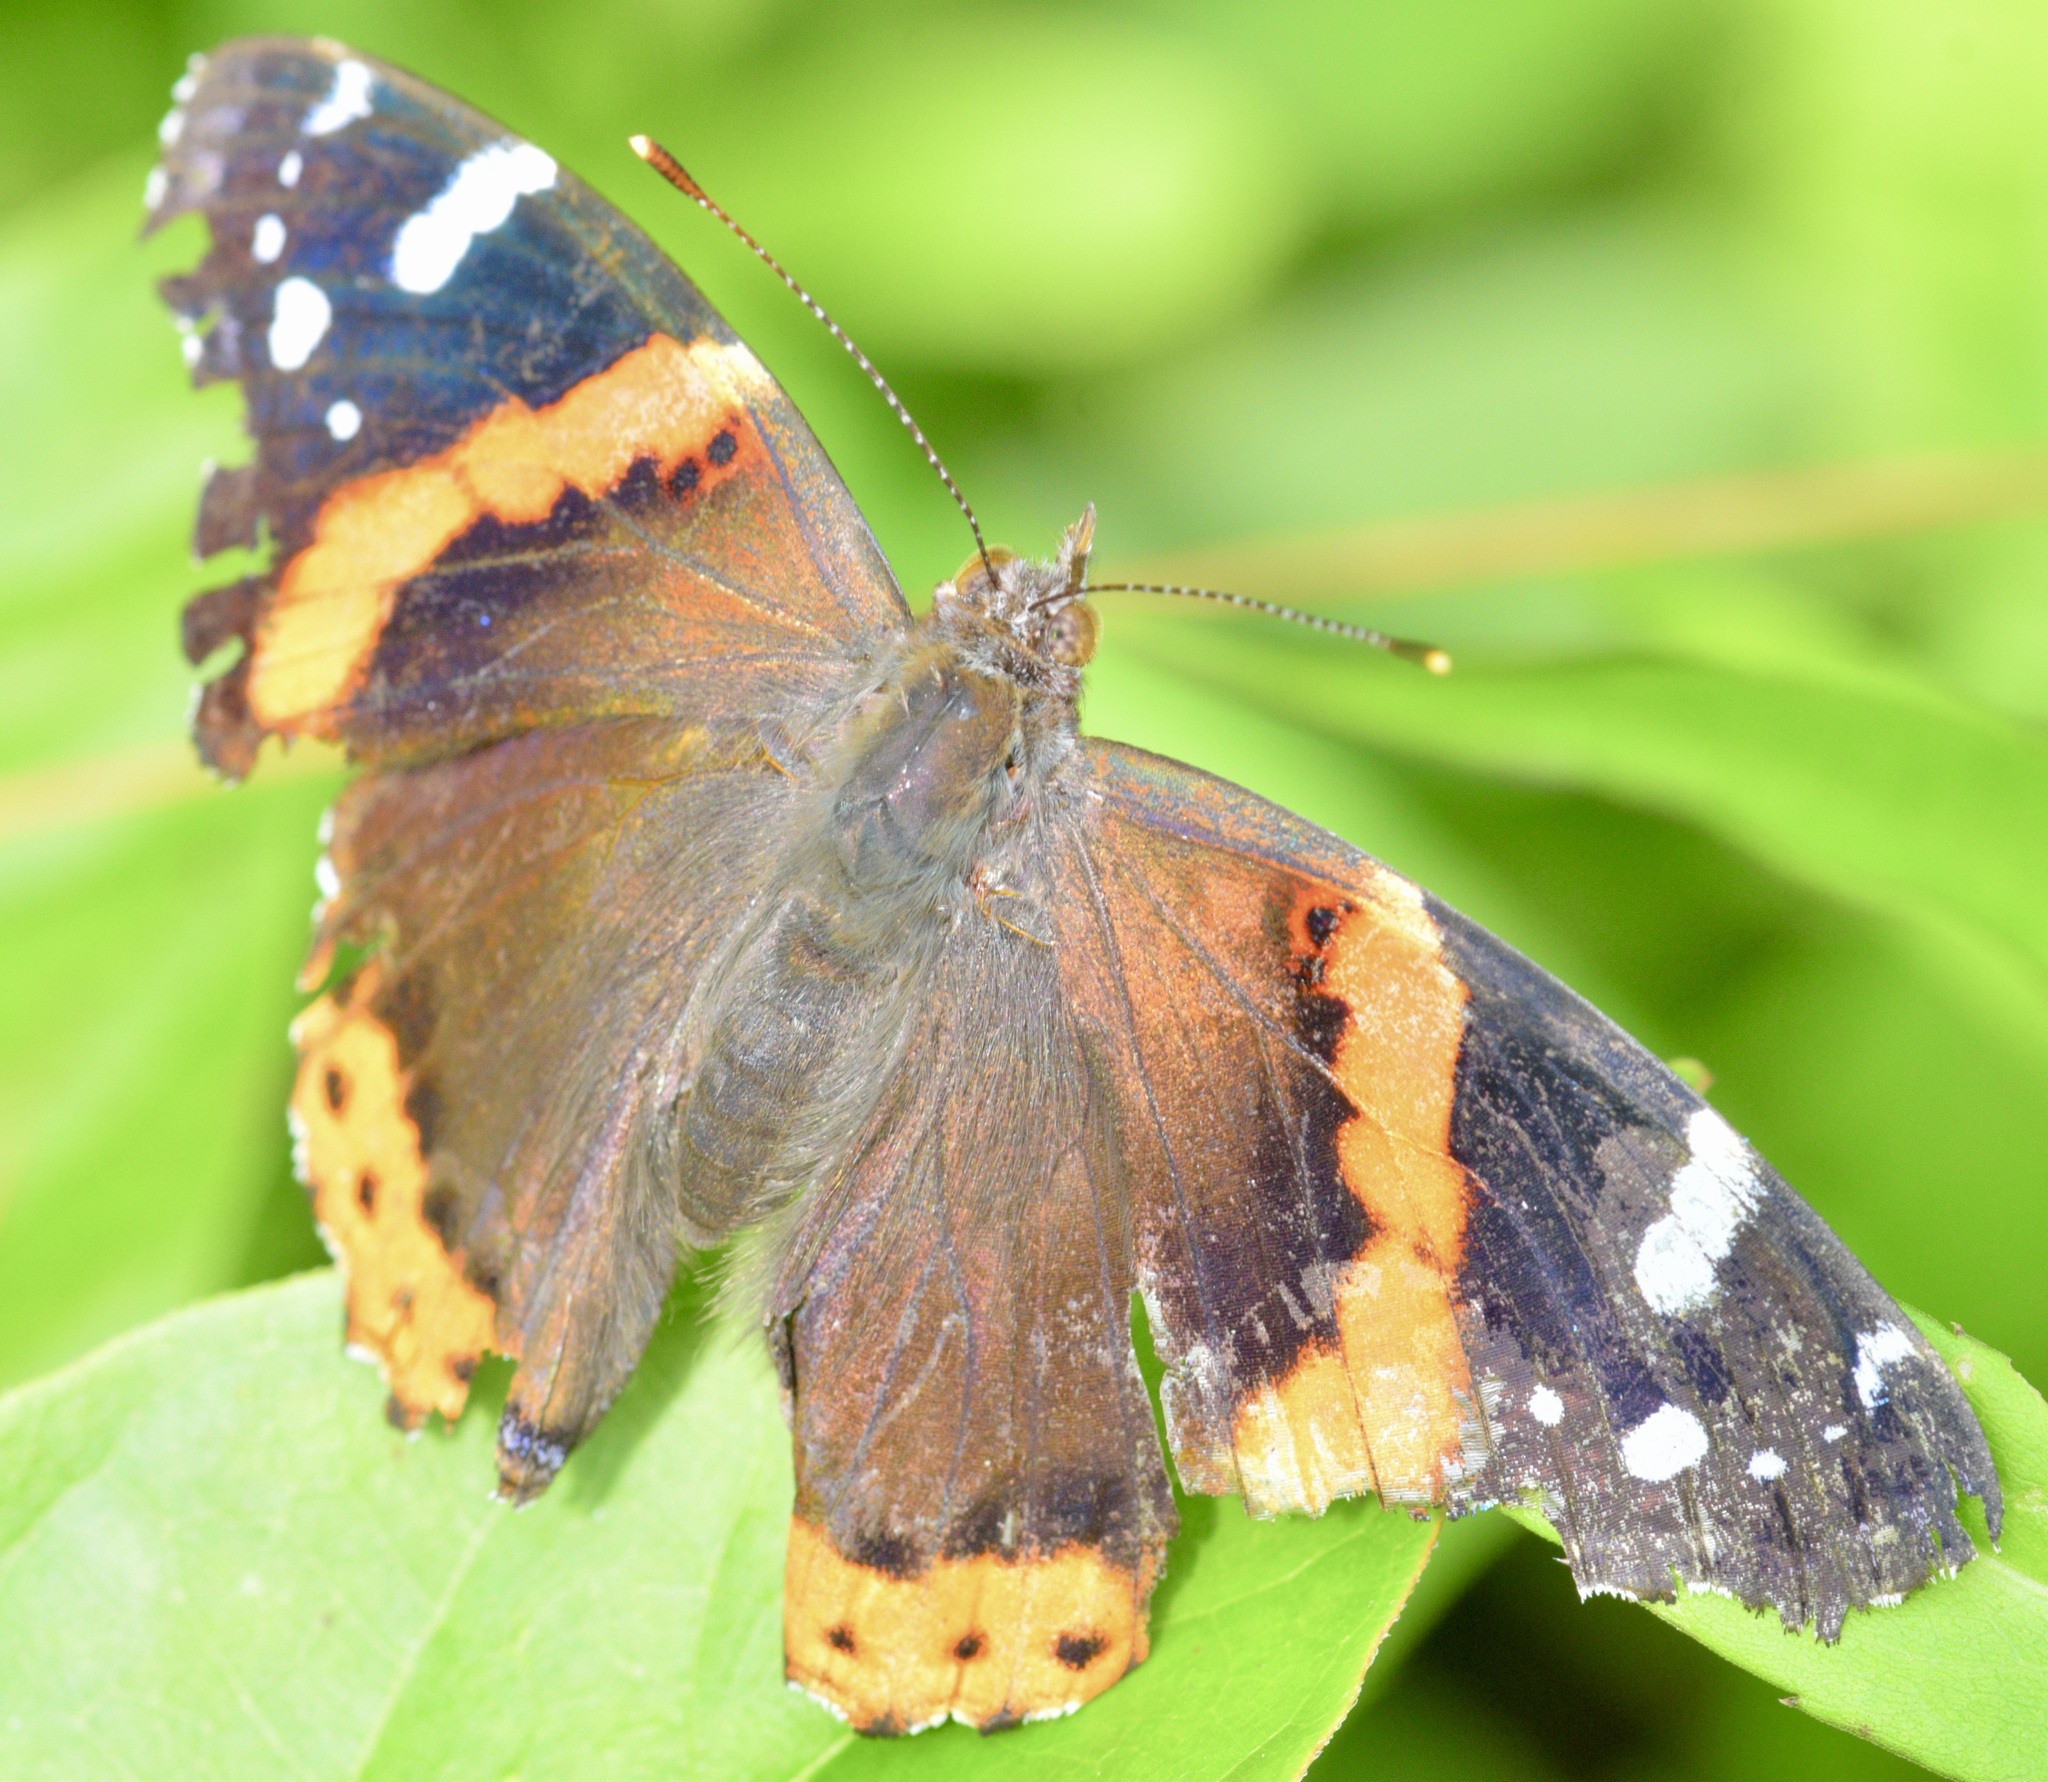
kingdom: Animalia
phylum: Arthropoda
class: Insecta
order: Lepidoptera
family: Nymphalidae
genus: Vanessa
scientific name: Vanessa atalanta
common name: Red admiral
